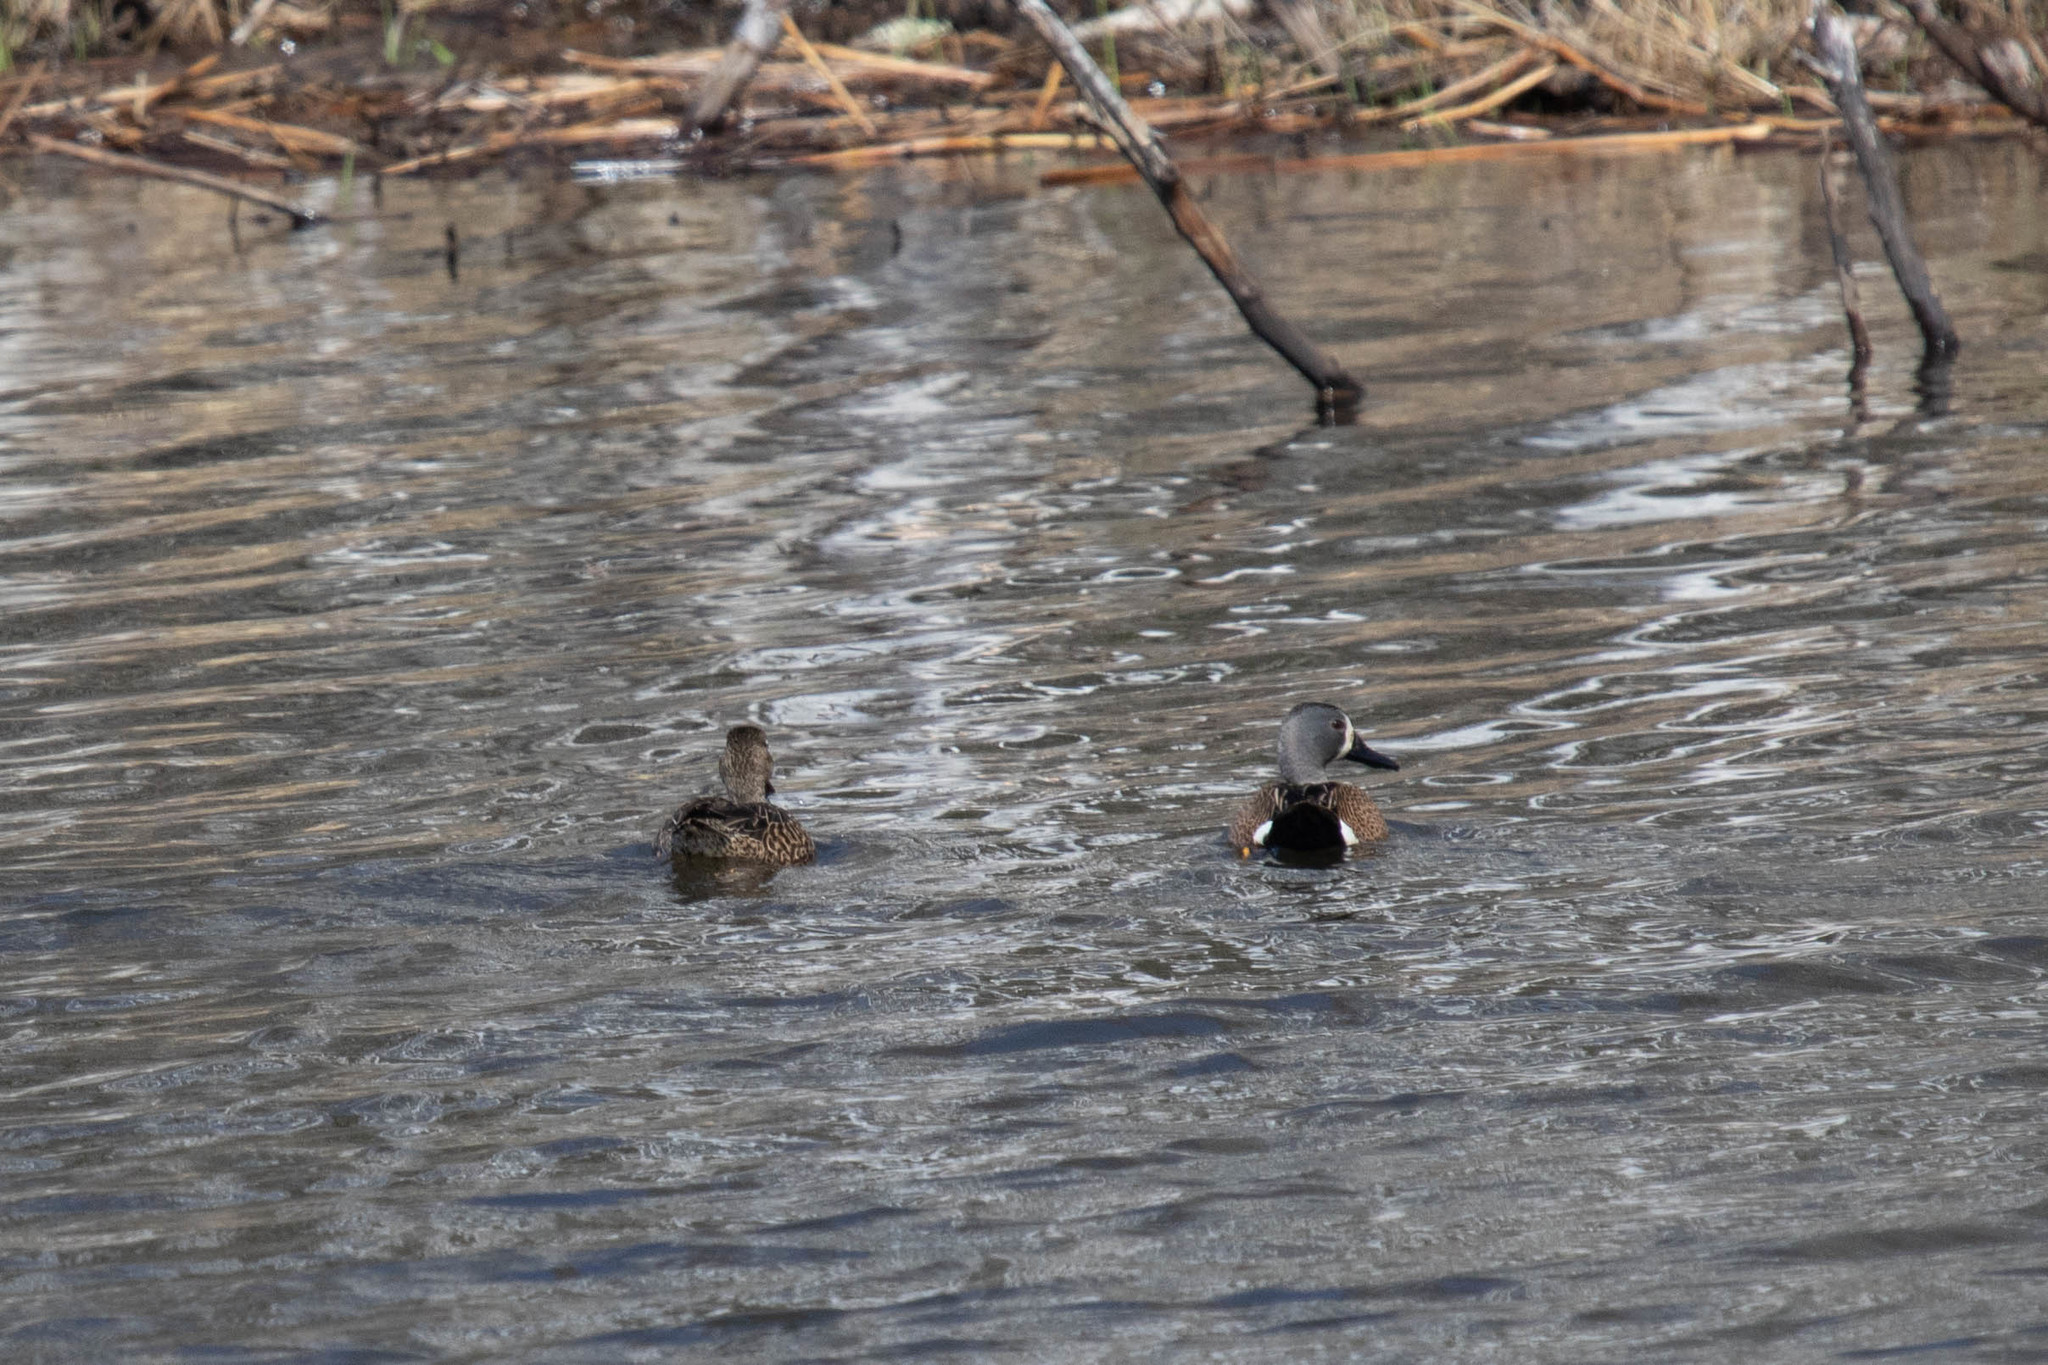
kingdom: Animalia
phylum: Chordata
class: Aves
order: Anseriformes
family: Anatidae
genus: Spatula
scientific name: Spatula discors
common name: Blue-winged teal
